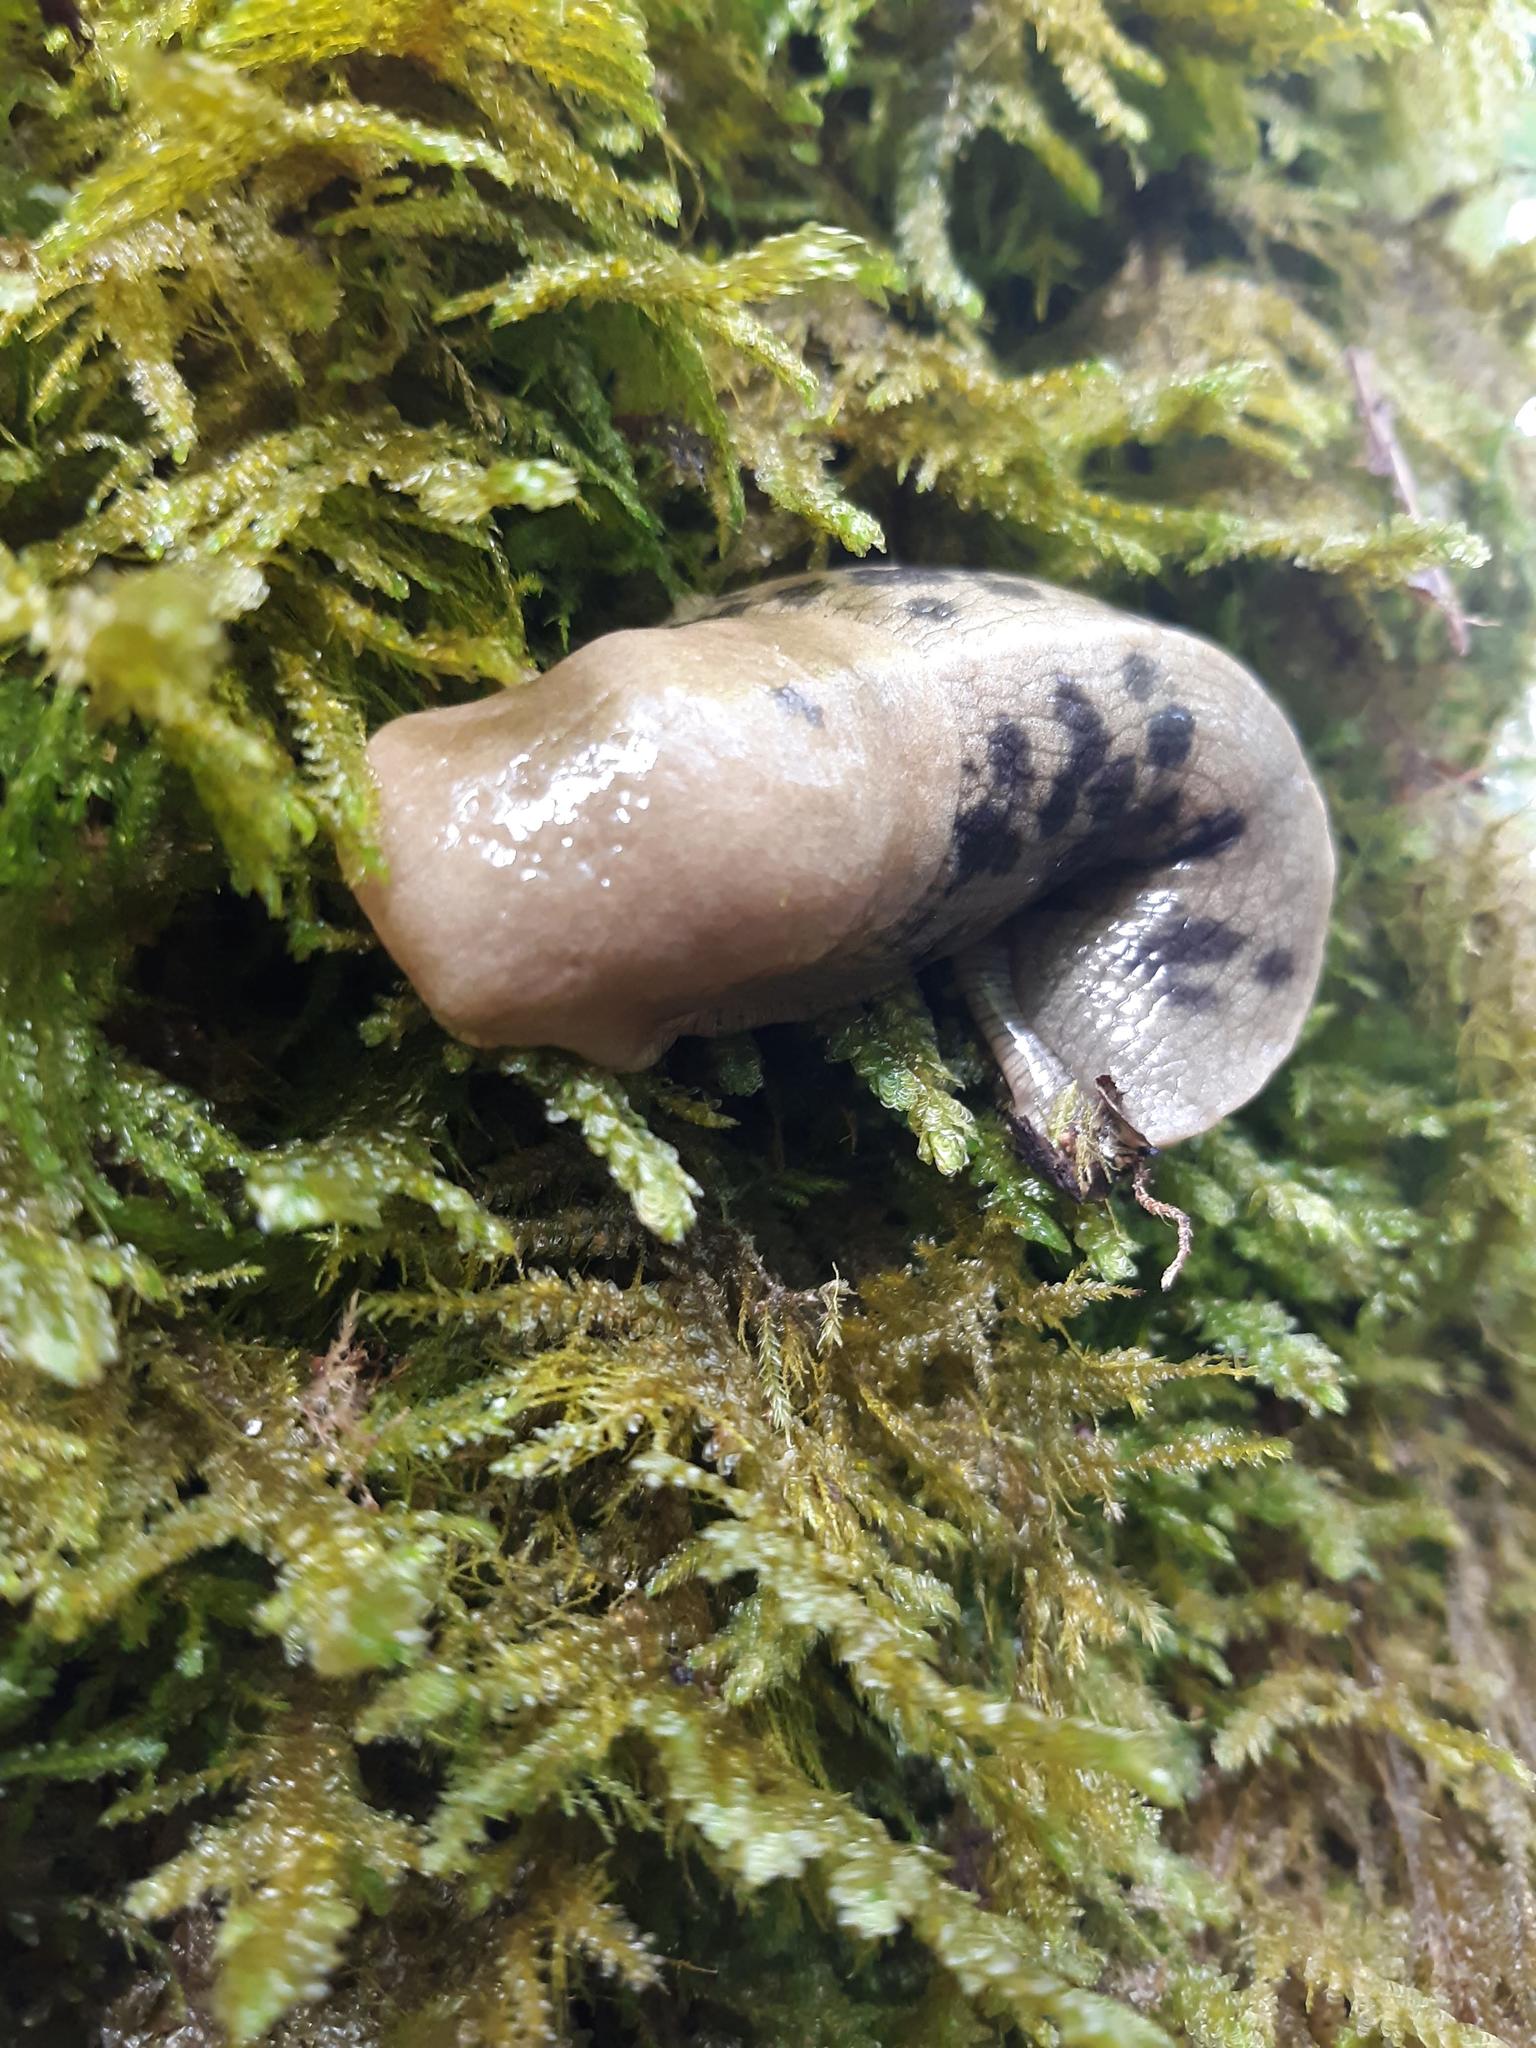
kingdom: Animalia
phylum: Mollusca
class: Gastropoda
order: Stylommatophora
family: Ariolimacidae
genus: Ariolimax
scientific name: Ariolimax columbianus
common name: Pacific banana slug
